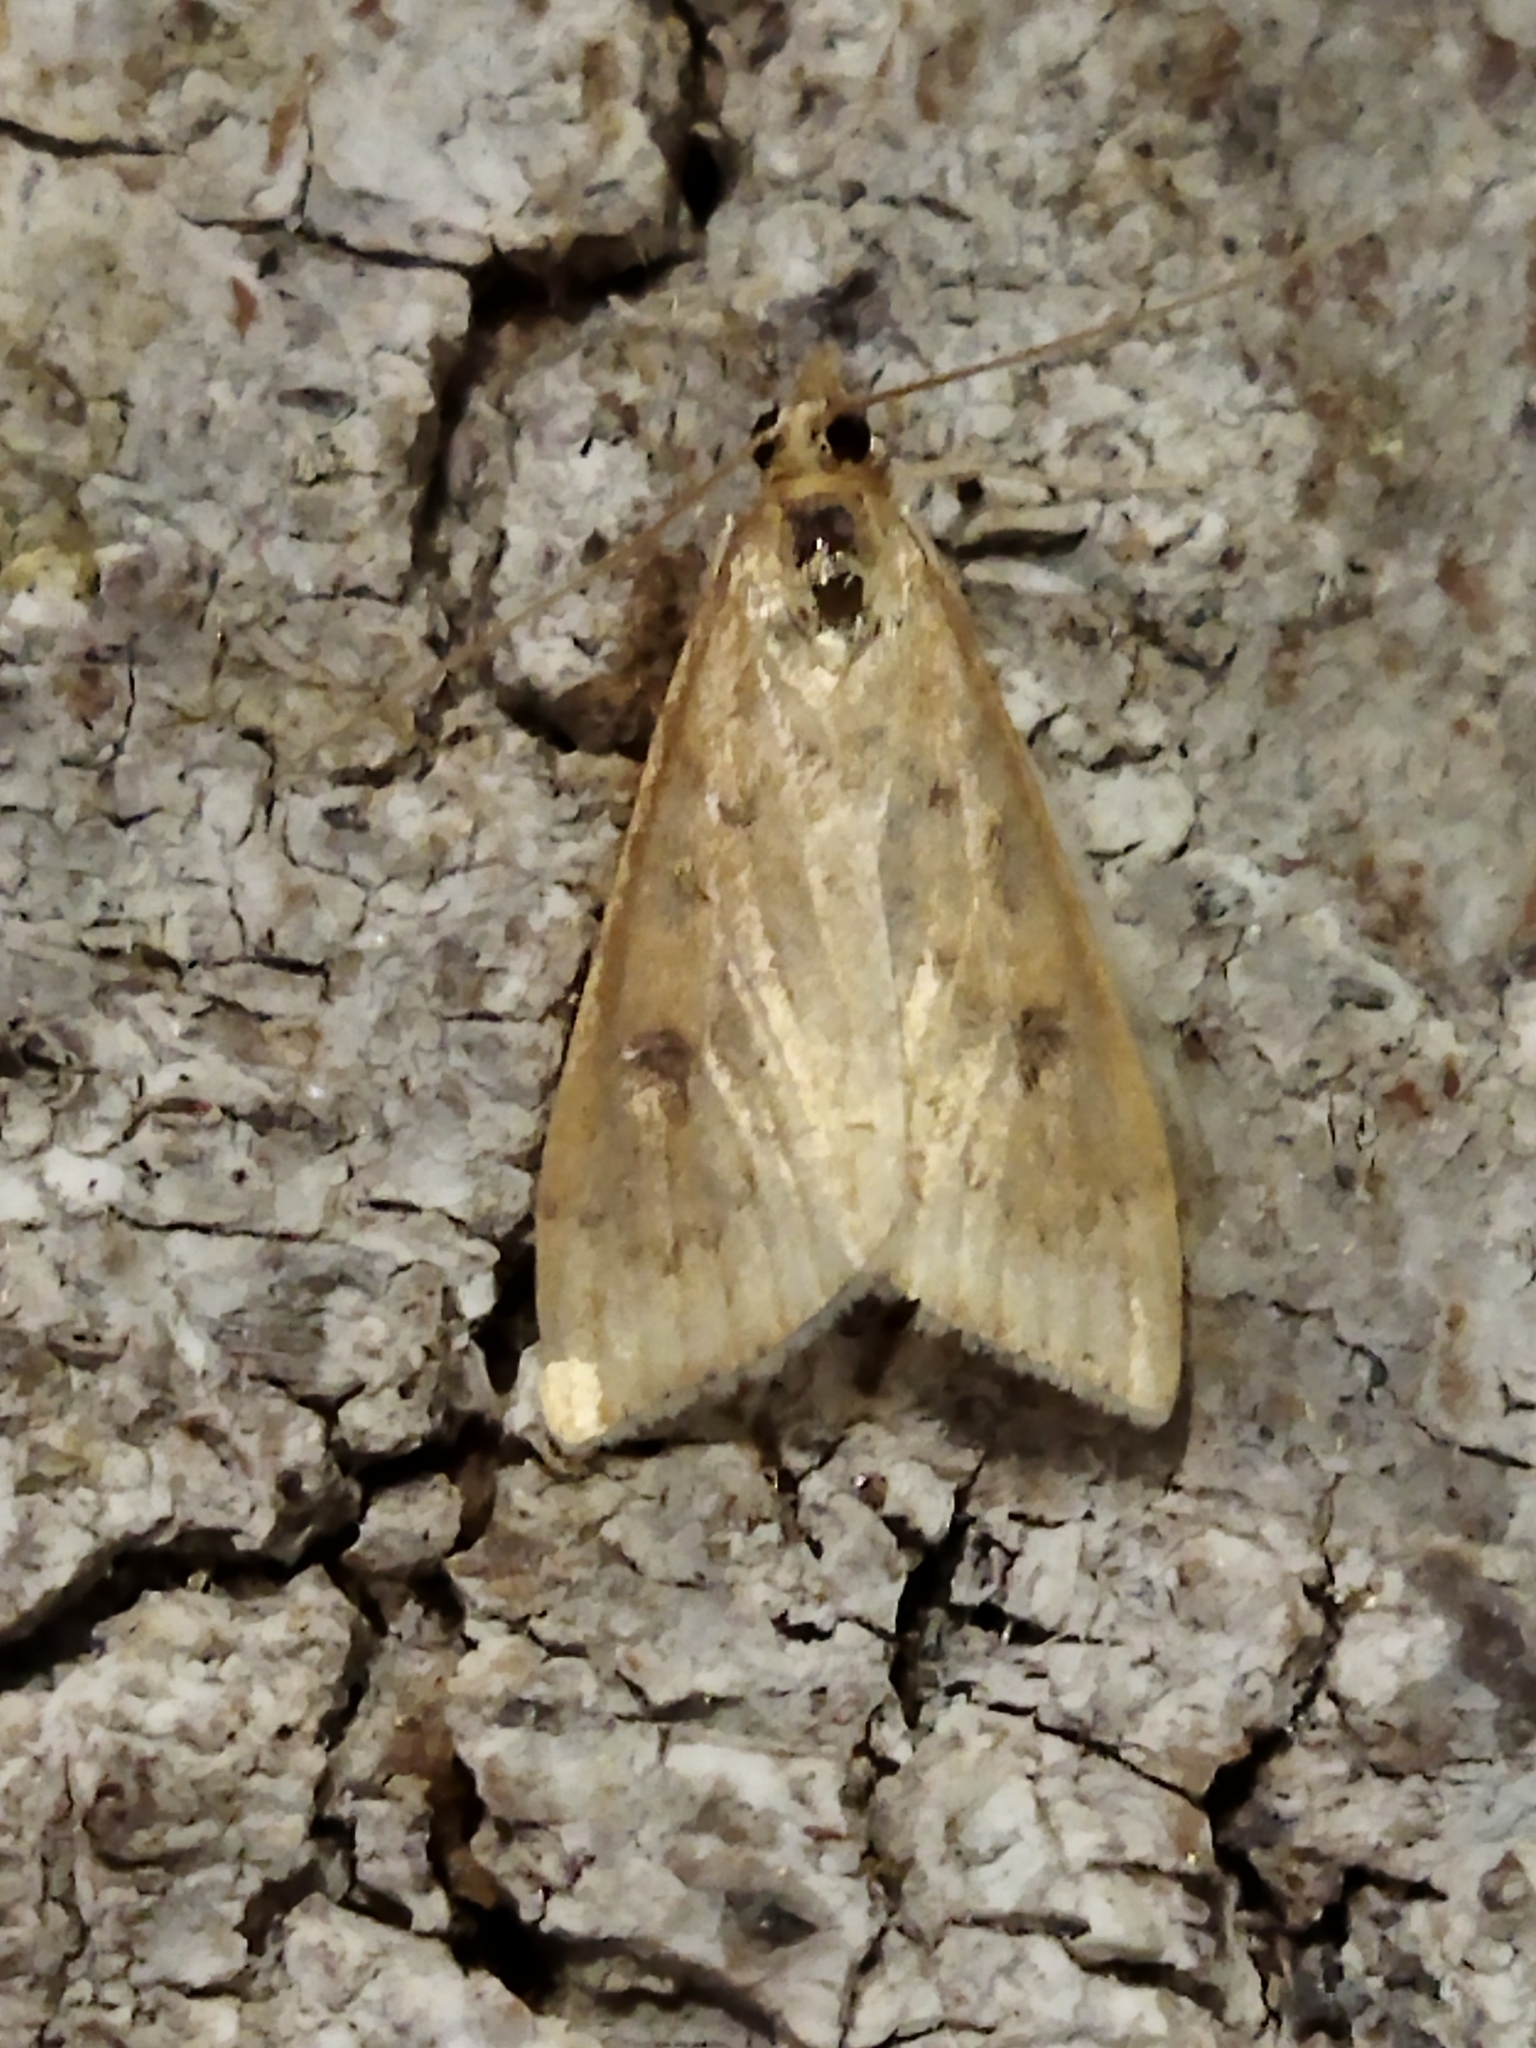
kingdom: Animalia
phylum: Arthropoda
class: Insecta
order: Lepidoptera
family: Crambidae
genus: Udea
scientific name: Udea ferrugalis
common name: Rusty dot
